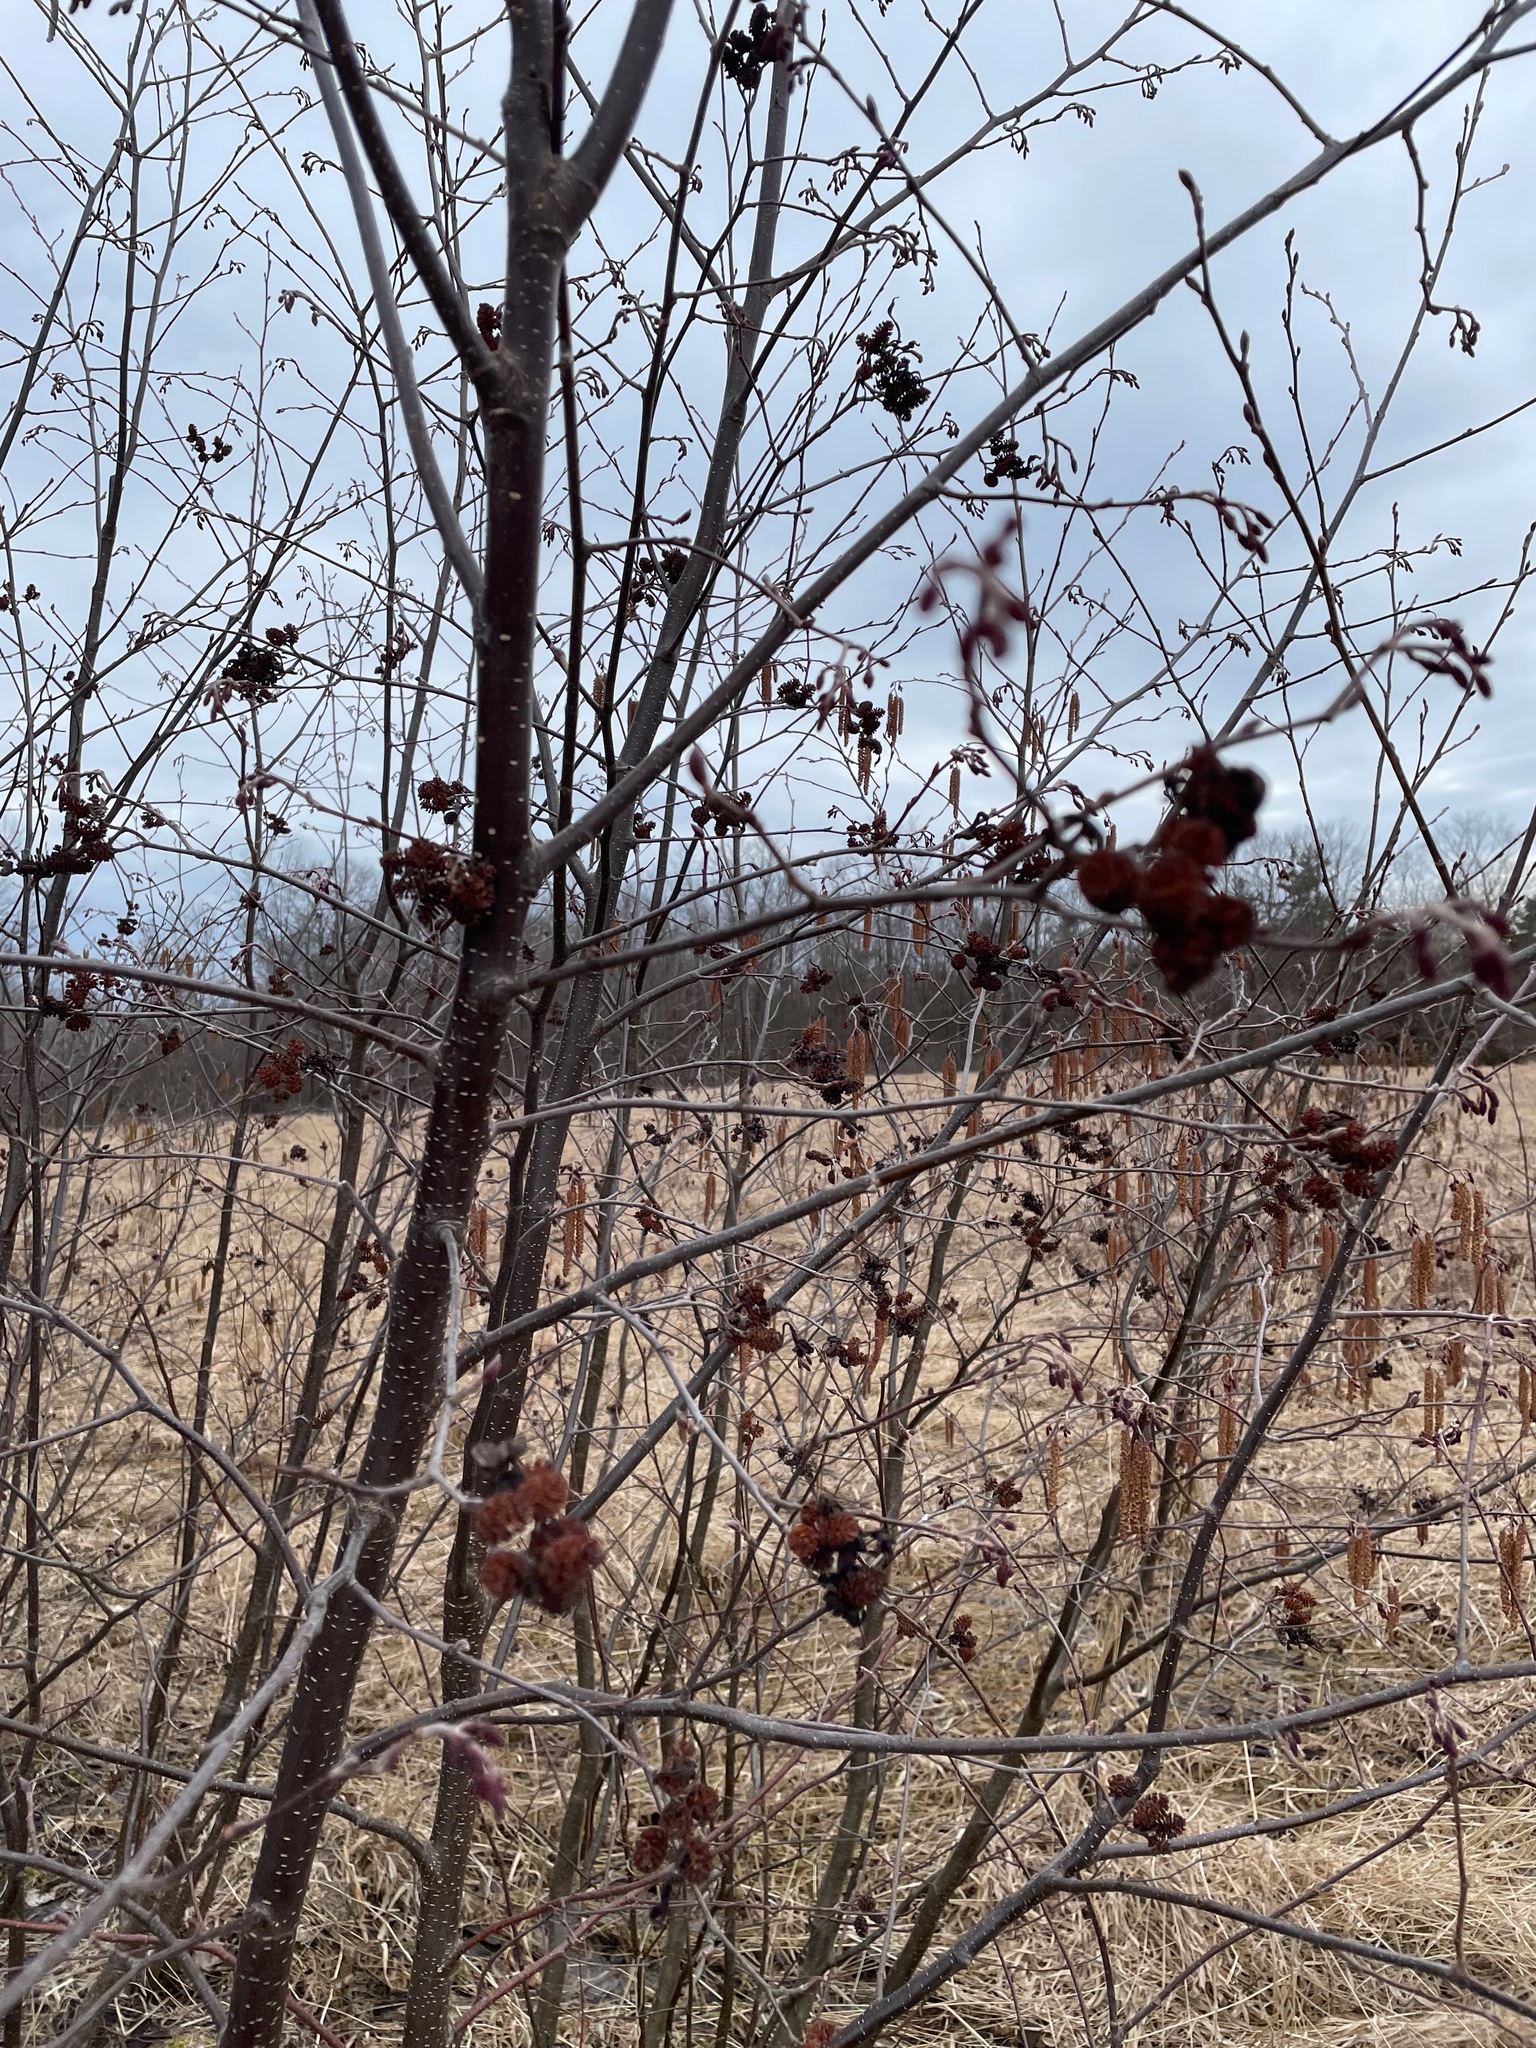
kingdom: Plantae
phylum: Tracheophyta
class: Magnoliopsida
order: Fagales
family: Betulaceae
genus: Alnus
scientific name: Alnus incana
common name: Grey alder
